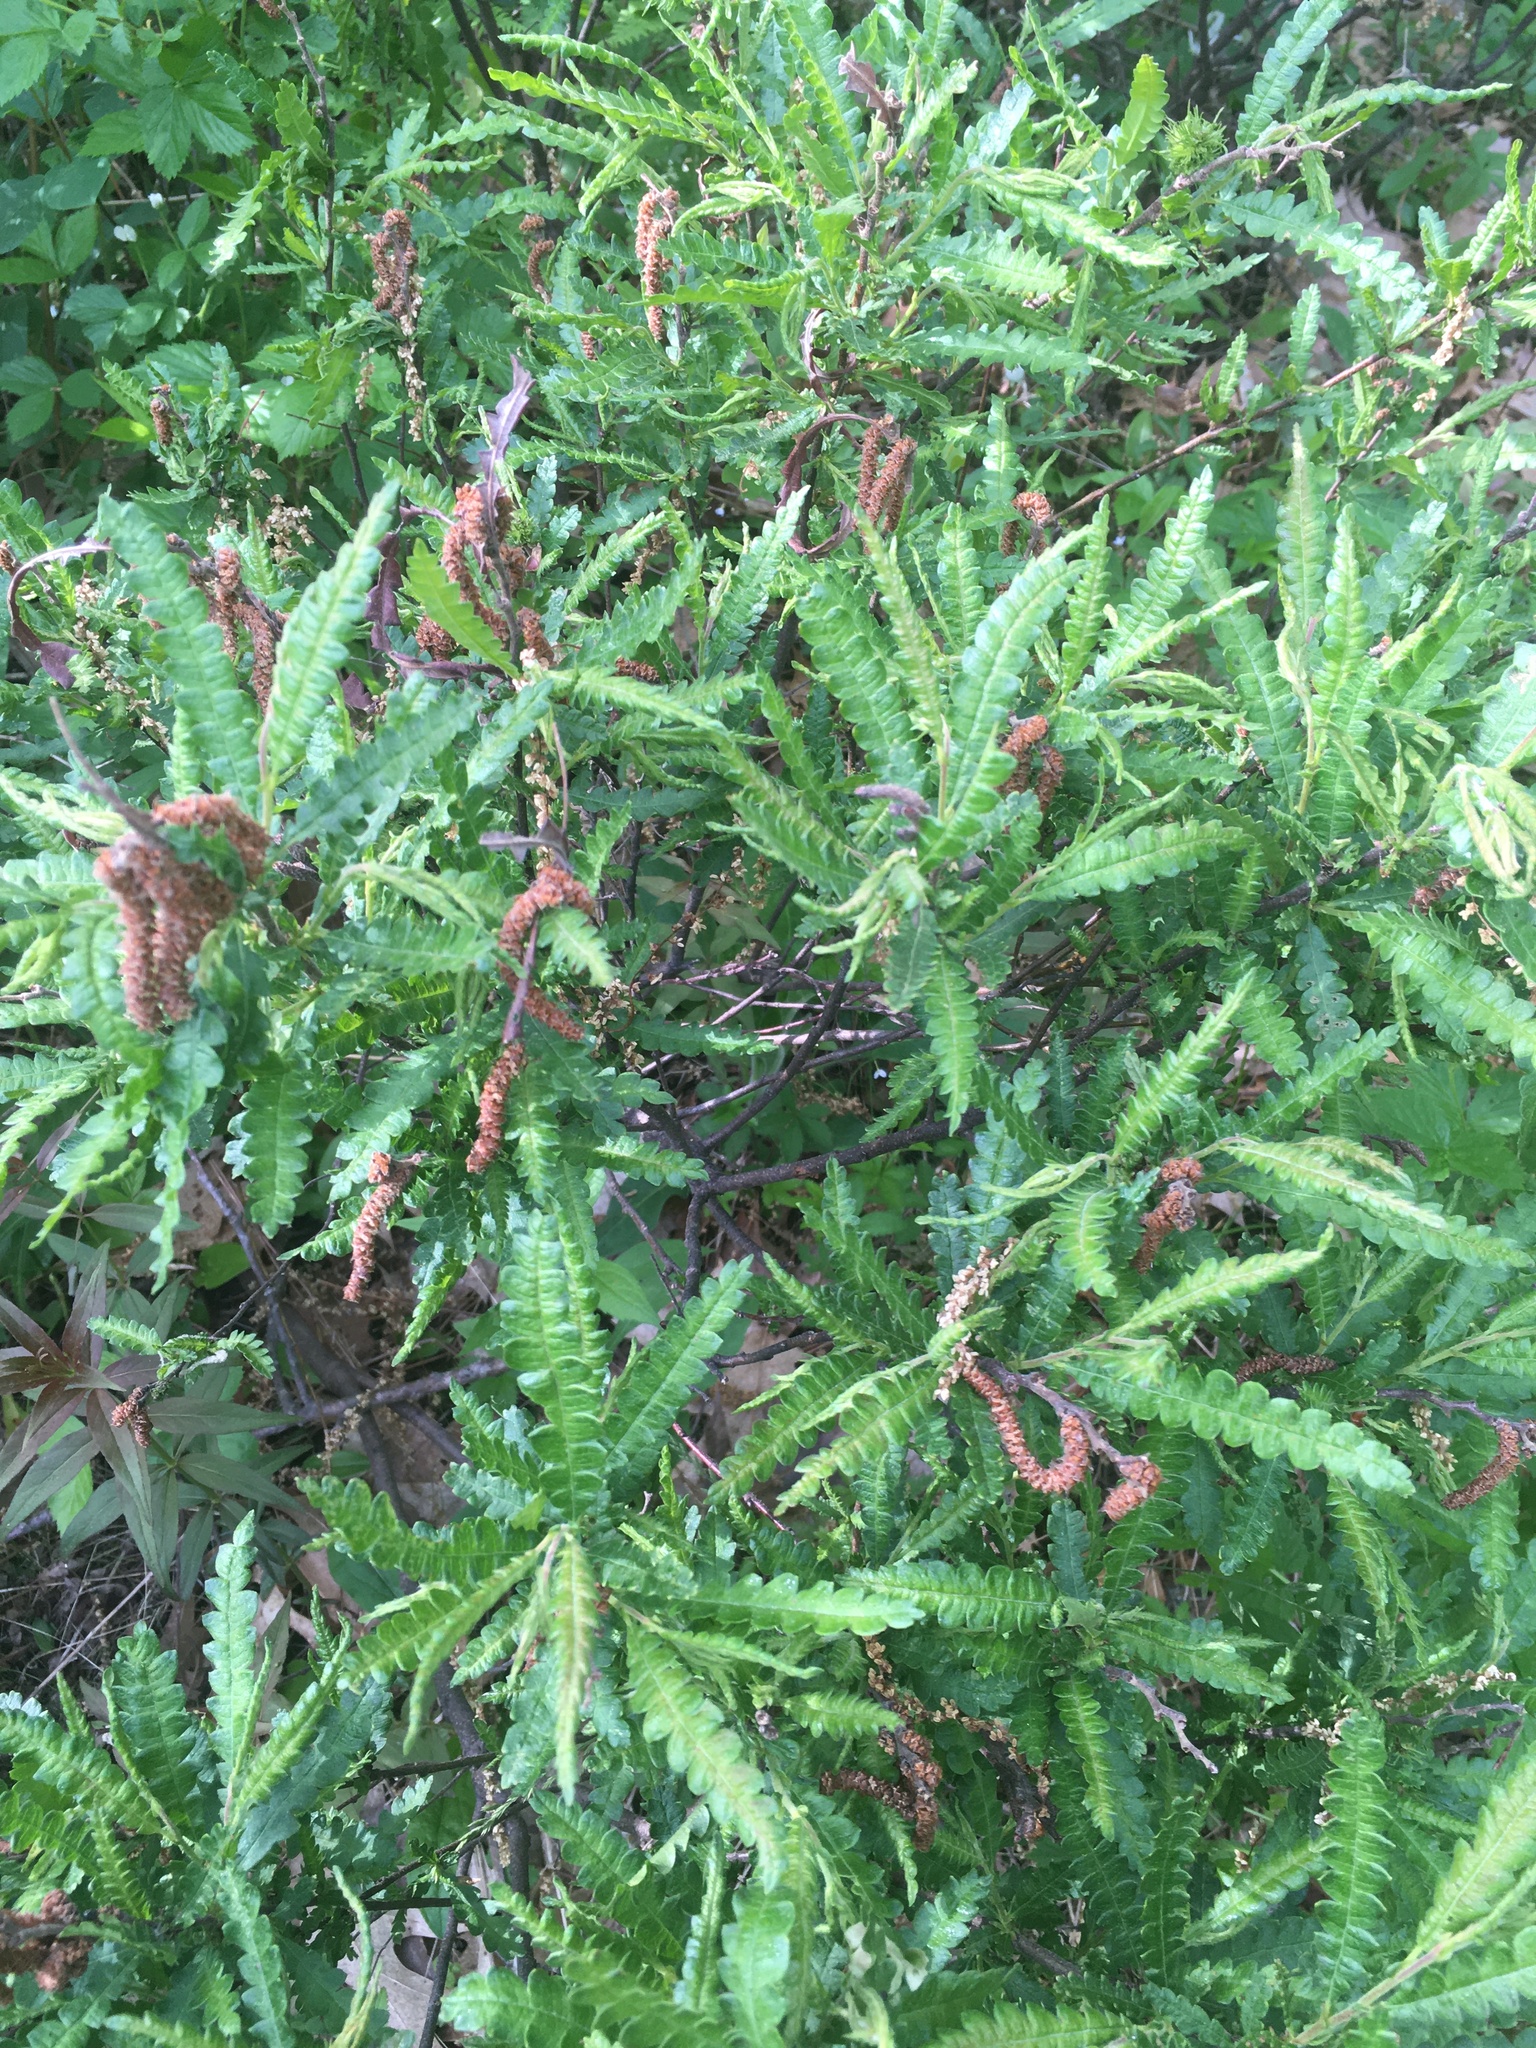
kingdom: Plantae
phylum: Tracheophyta
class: Magnoliopsida
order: Fagales
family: Myricaceae
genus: Comptonia
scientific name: Comptonia peregrina
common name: Sweet-fern
